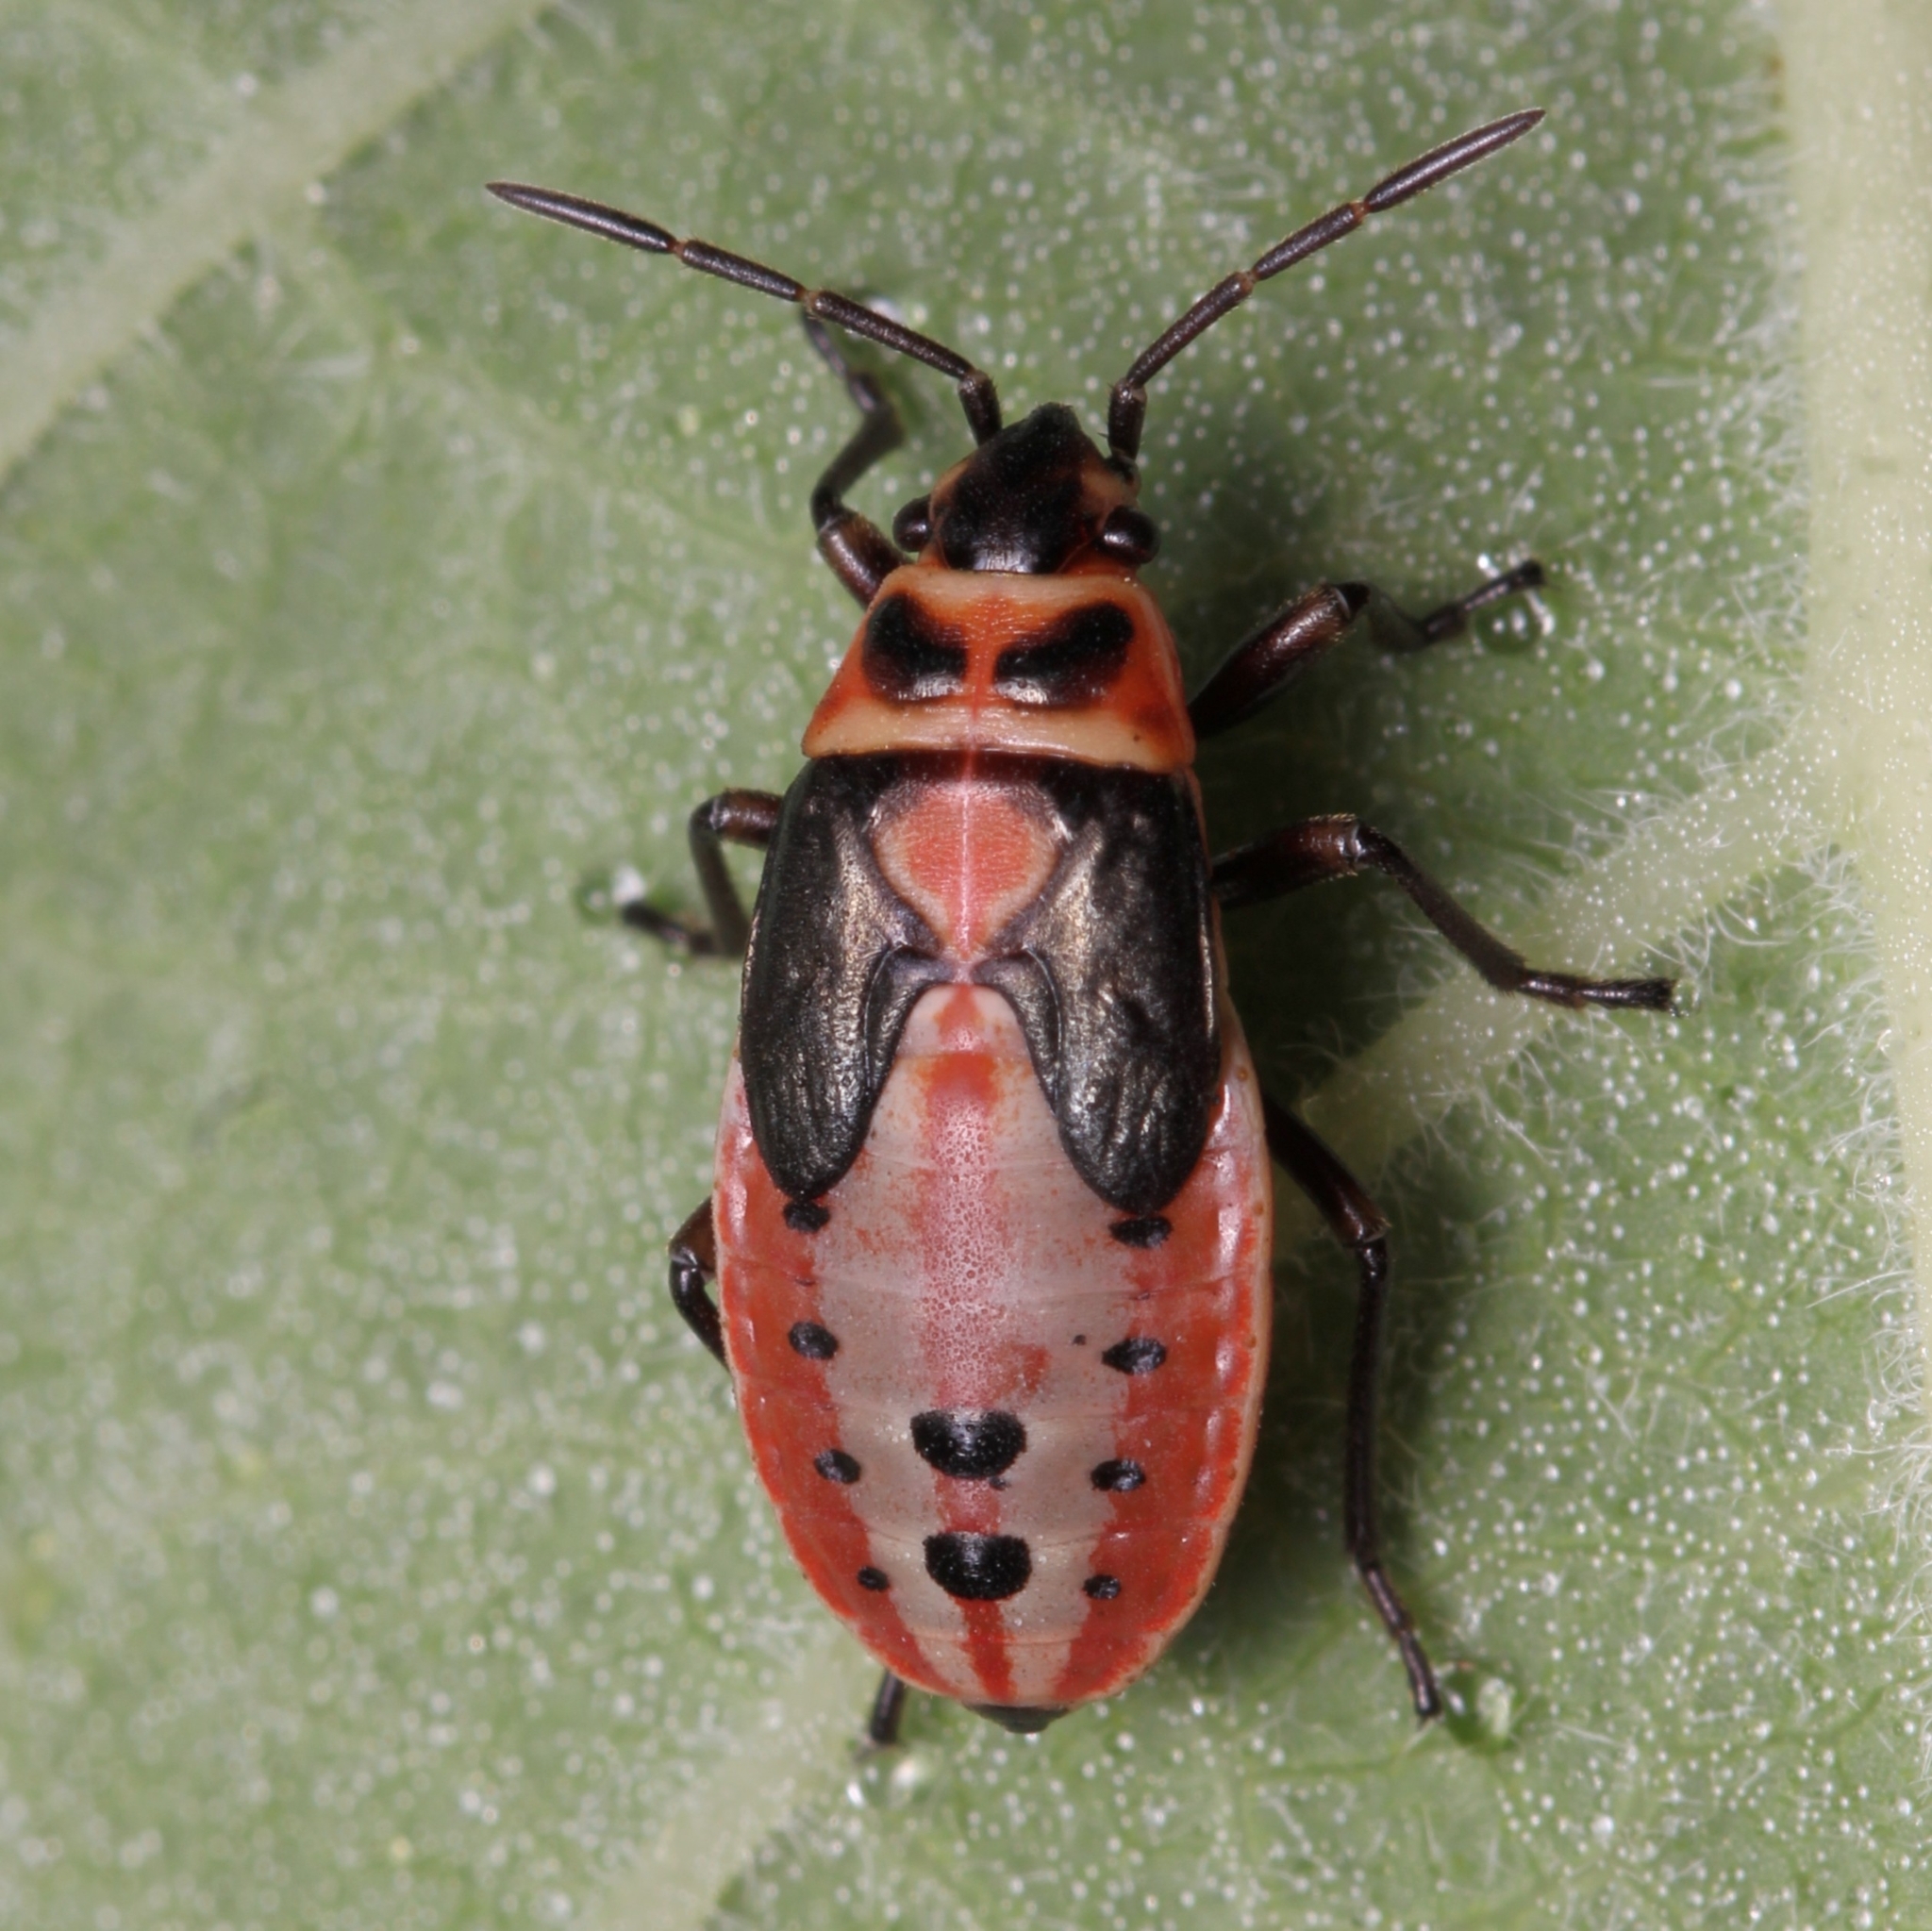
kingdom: Animalia
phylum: Arthropoda
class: Insecta
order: Hemiptera
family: Lygaeidae
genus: Lygaeus
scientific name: Lygaeus kalmii
